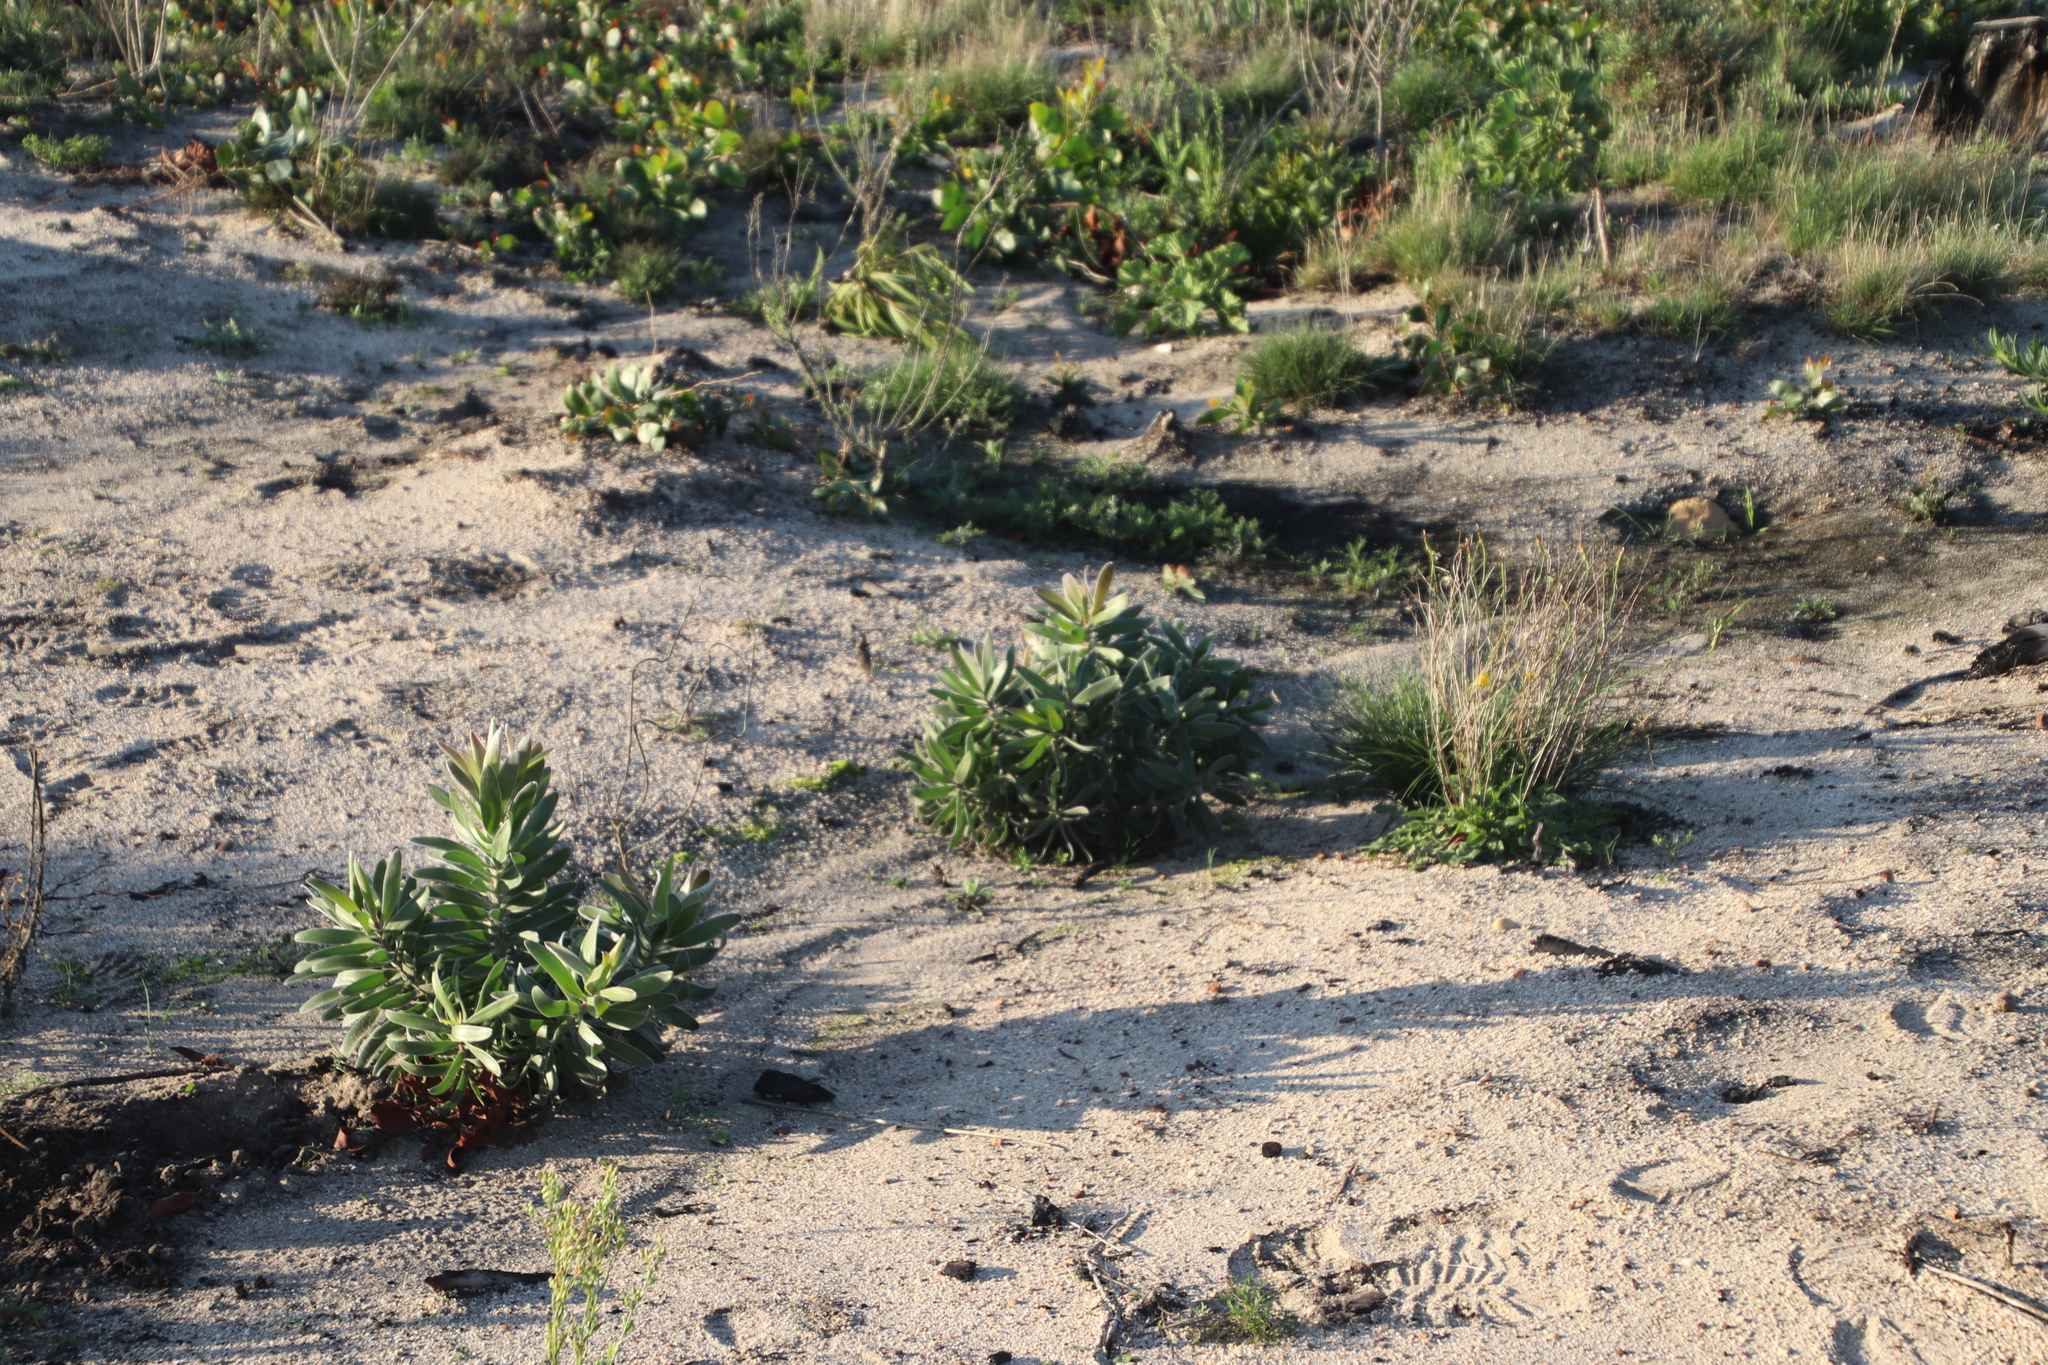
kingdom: Plantae
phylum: Tracheophyta
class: Magnoliopsida
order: Proteales
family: Proteaceae
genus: Leucadendron
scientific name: Leucadendron laureolum
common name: Golden sunshinebush
